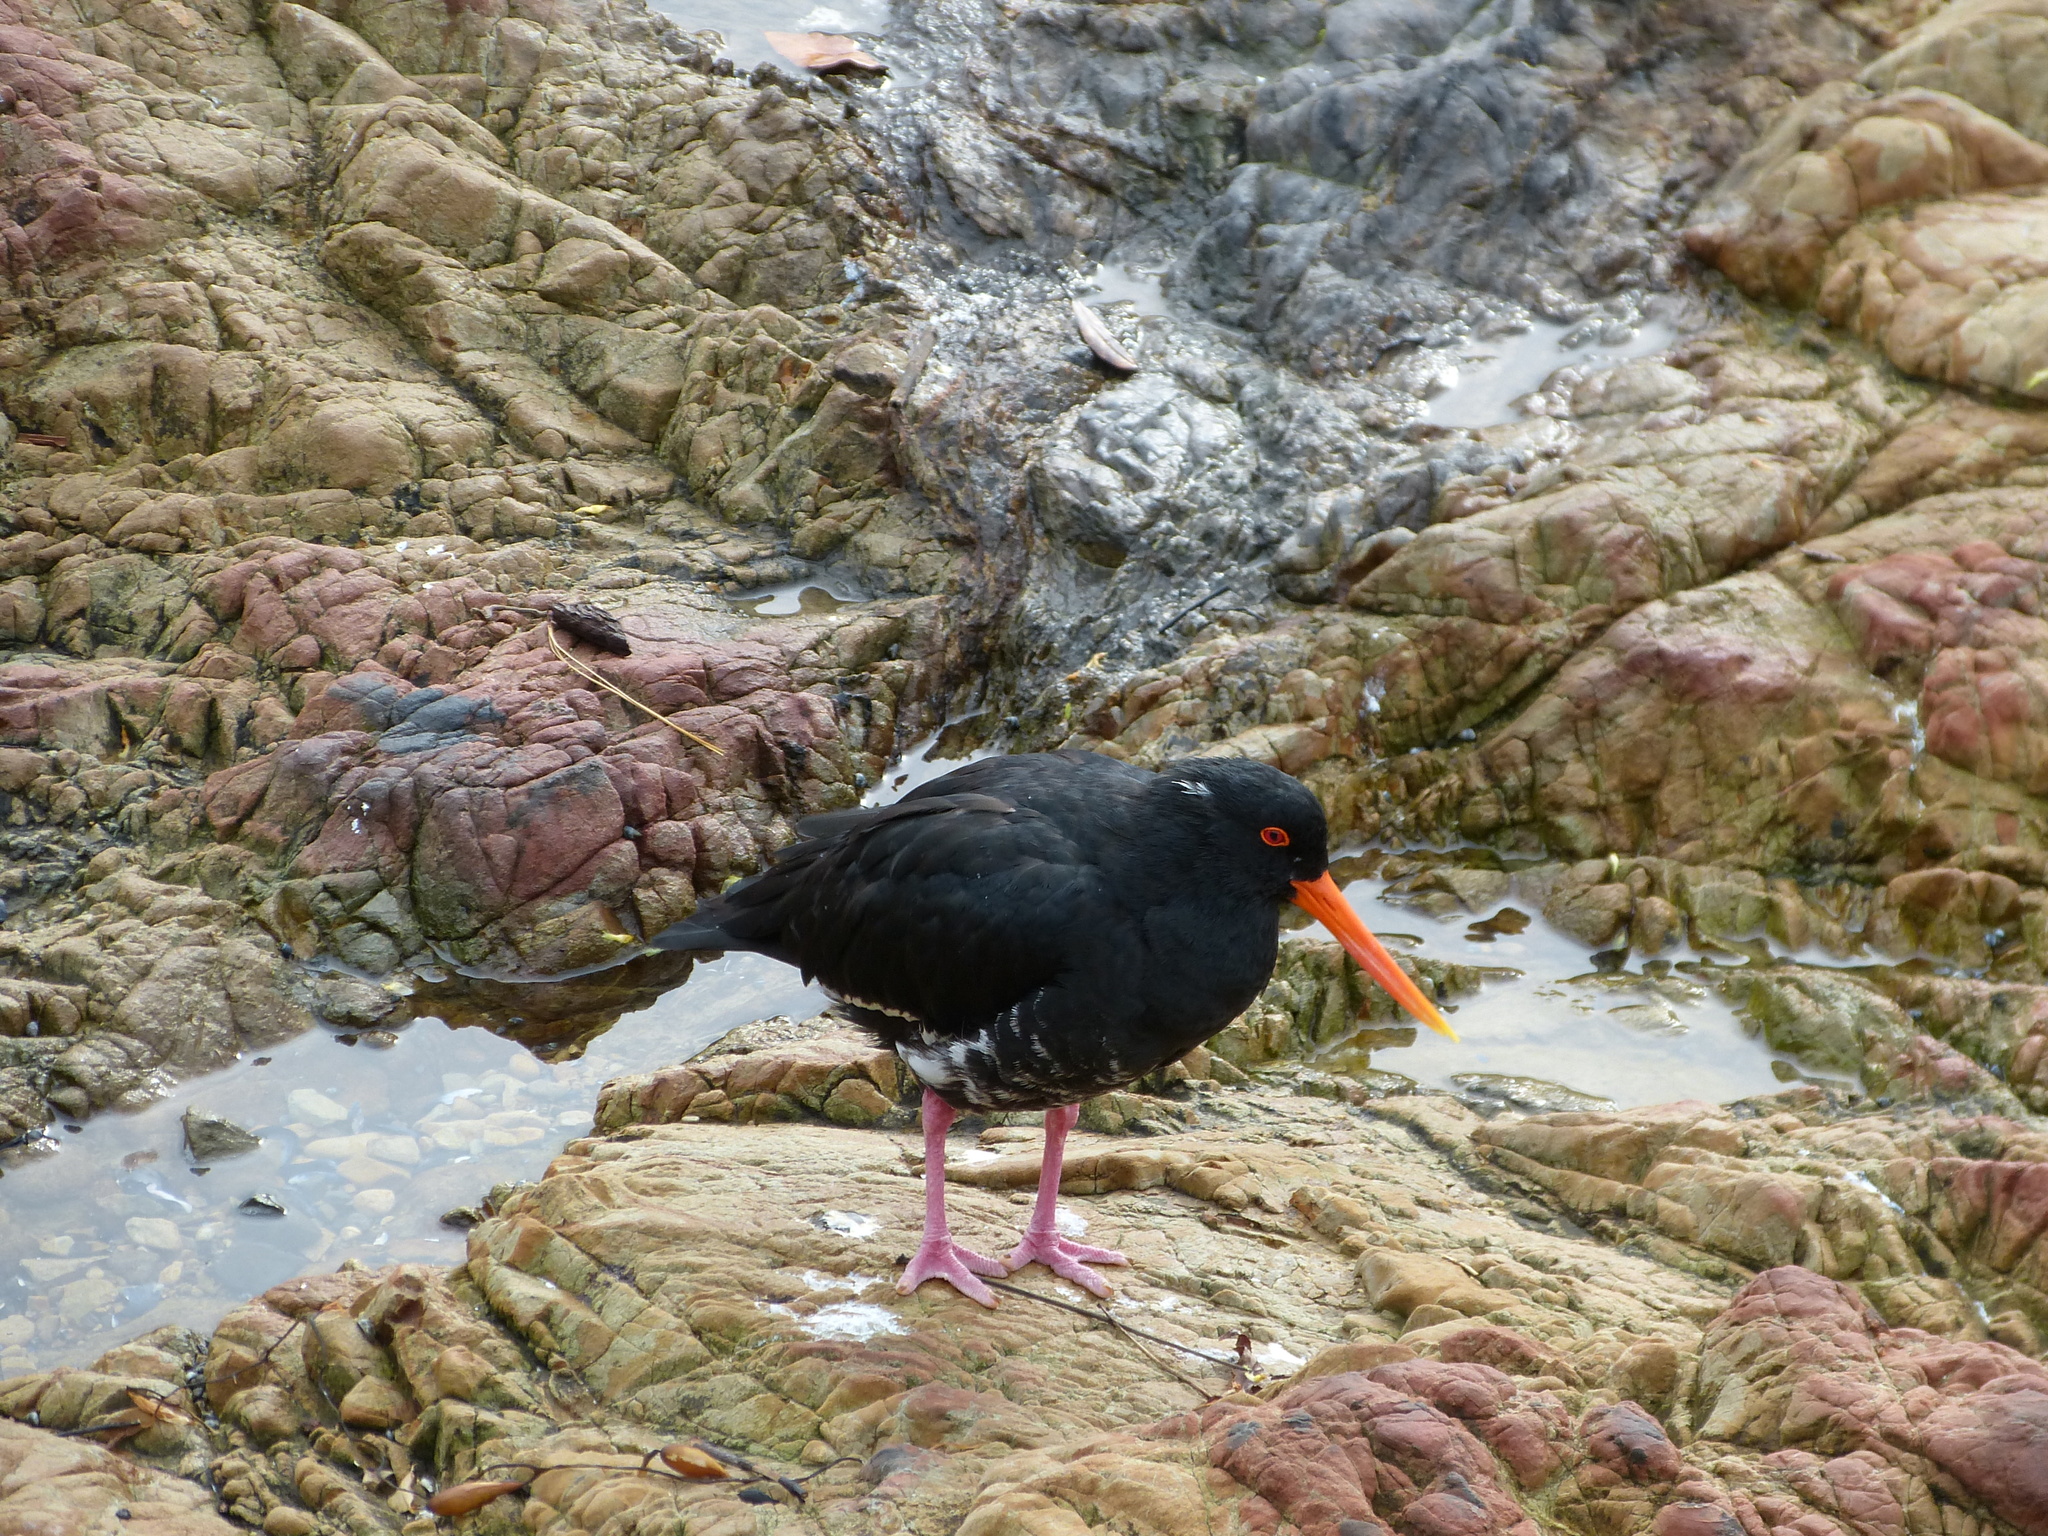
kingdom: Animalia
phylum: Chordata
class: Aves
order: Charadriiformes
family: Haematopodidae
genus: Haematopus
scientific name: Haematopus unicolor
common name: Variable oystercatcher
